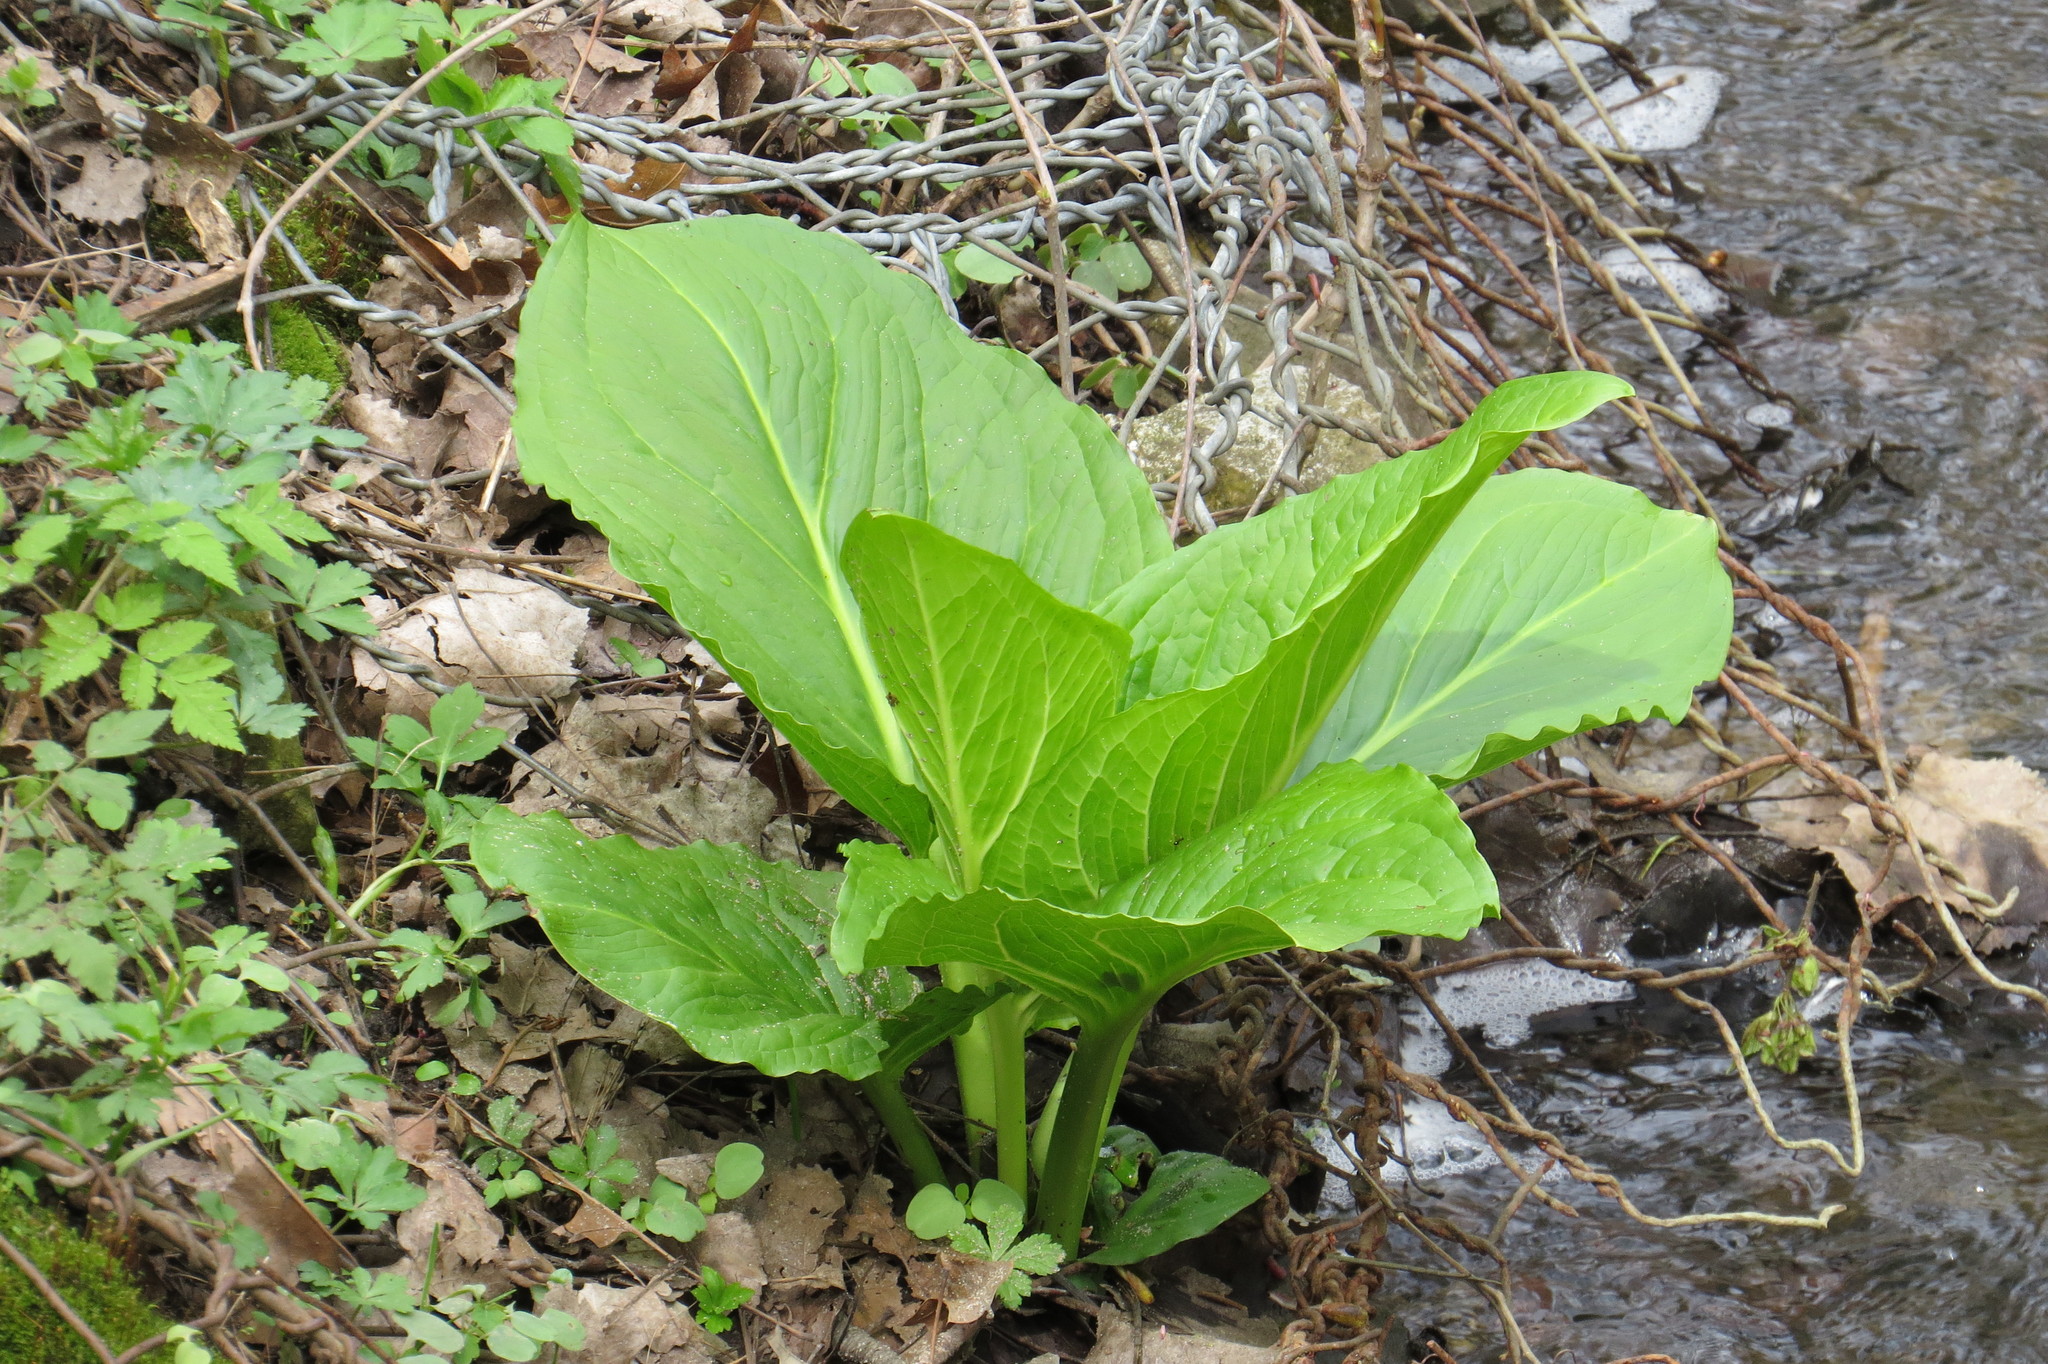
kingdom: Plantae
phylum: Tracheophyta
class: Liliopsida
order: Alismatales
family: Araceae
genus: Symplocarpus
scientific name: Symplocarpus foetidus
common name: Eastern skunk cabbage
